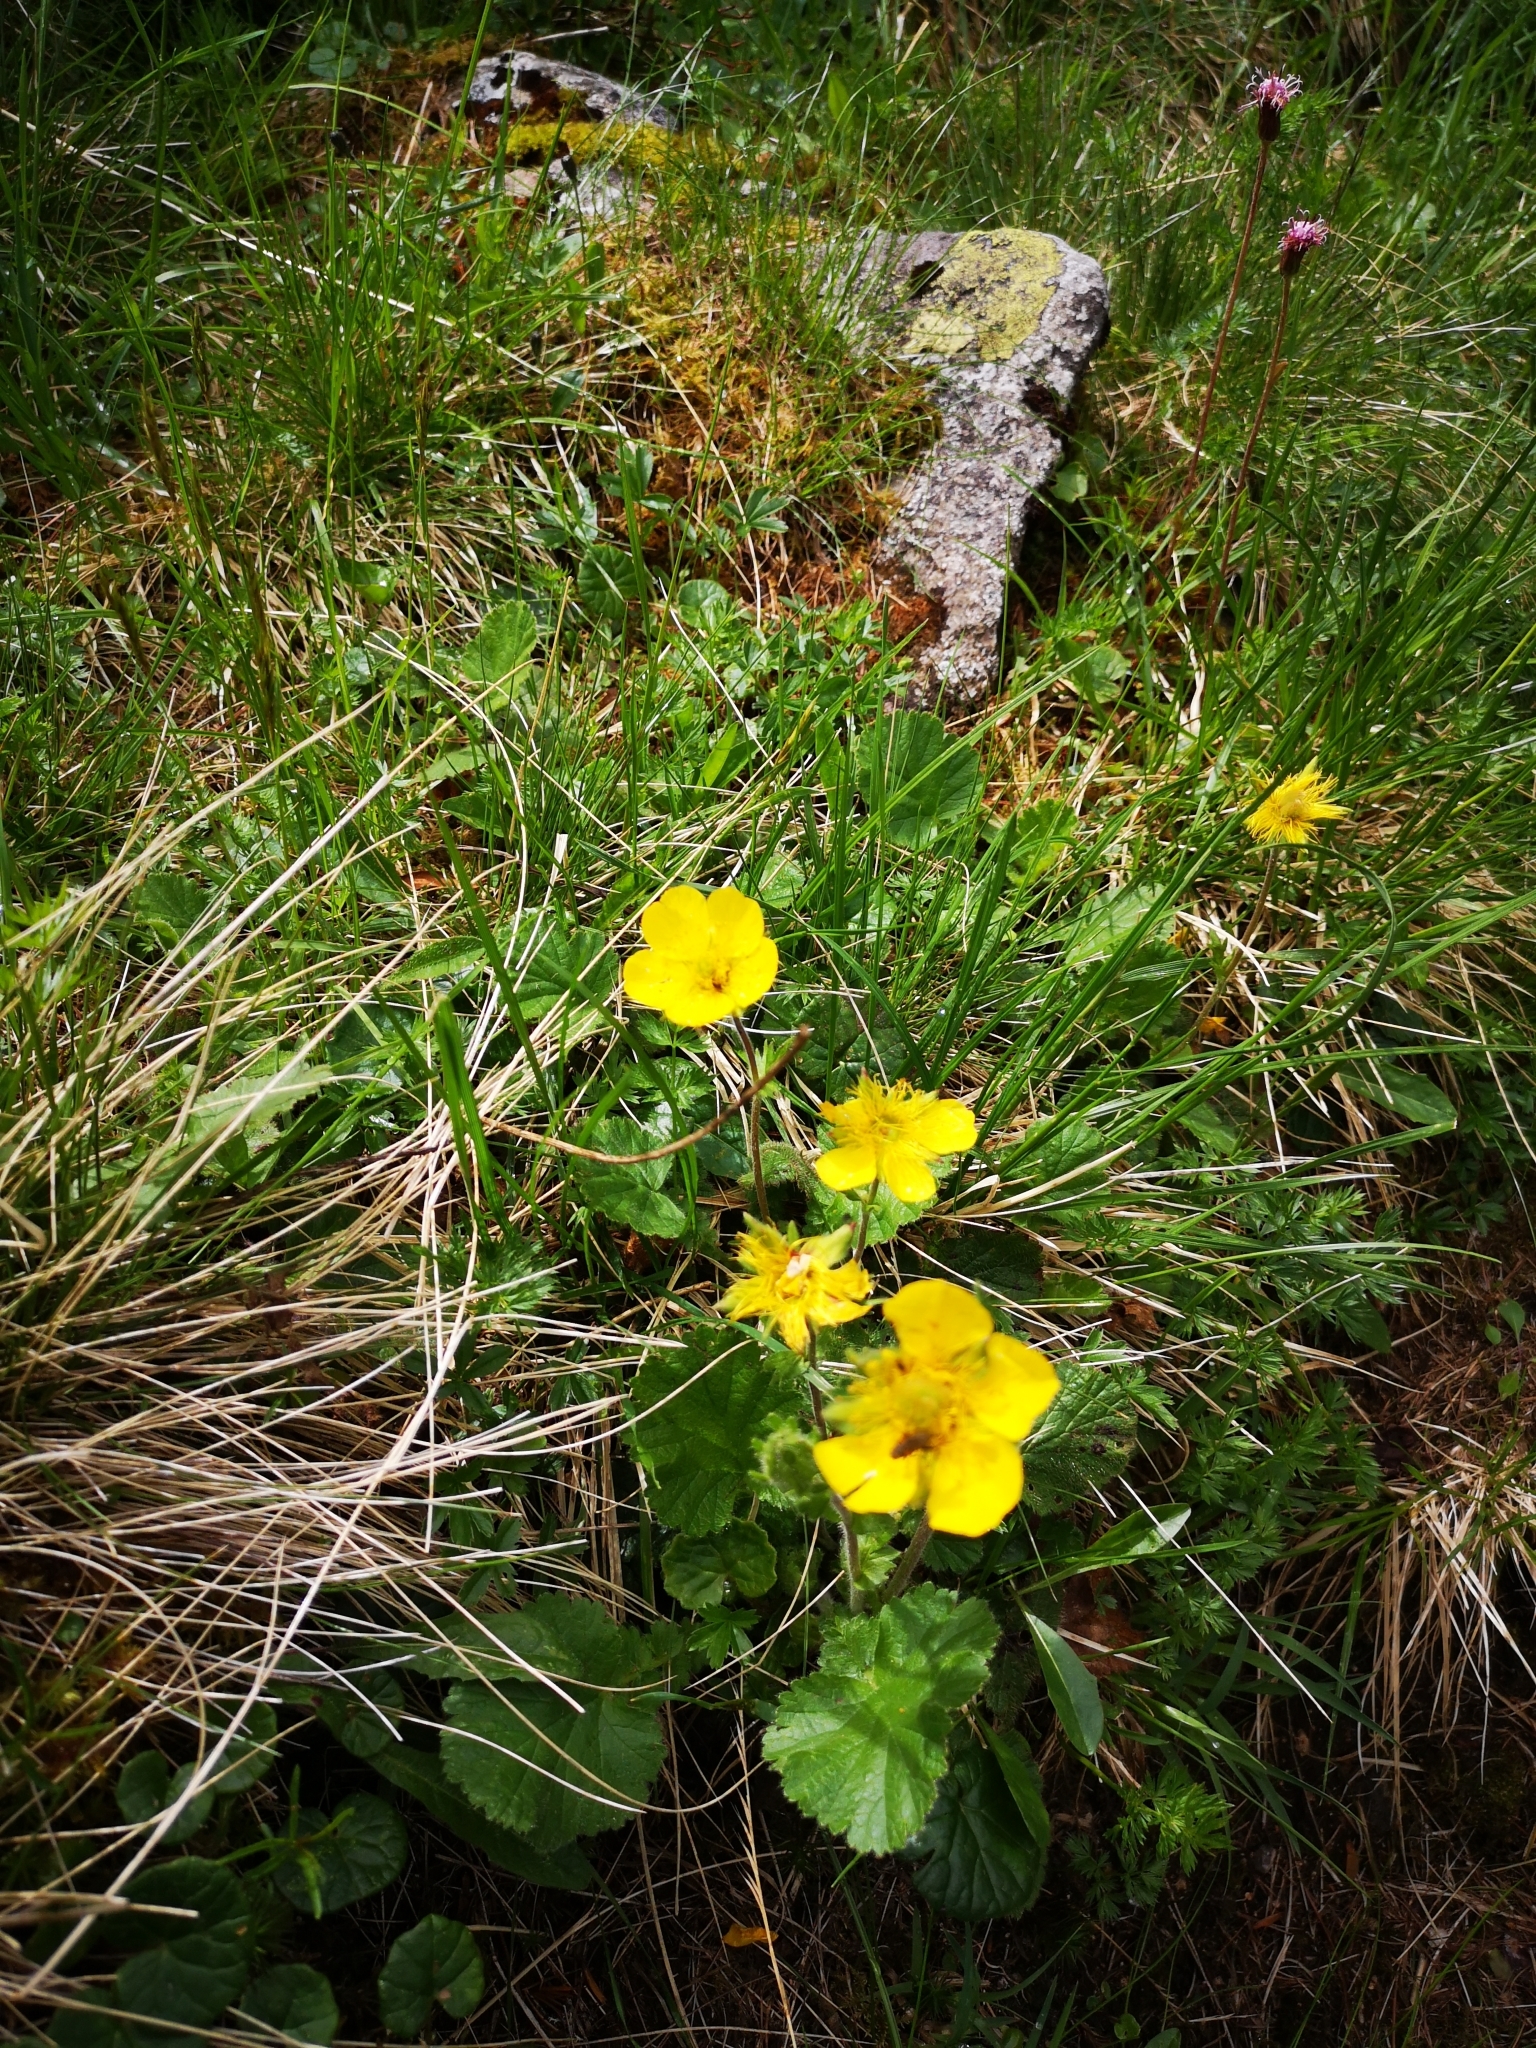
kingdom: Plantae
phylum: Tracheophyta
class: Magnoliopsida
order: Rosales
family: Rosaceae
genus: Geum
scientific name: Geum montanum
